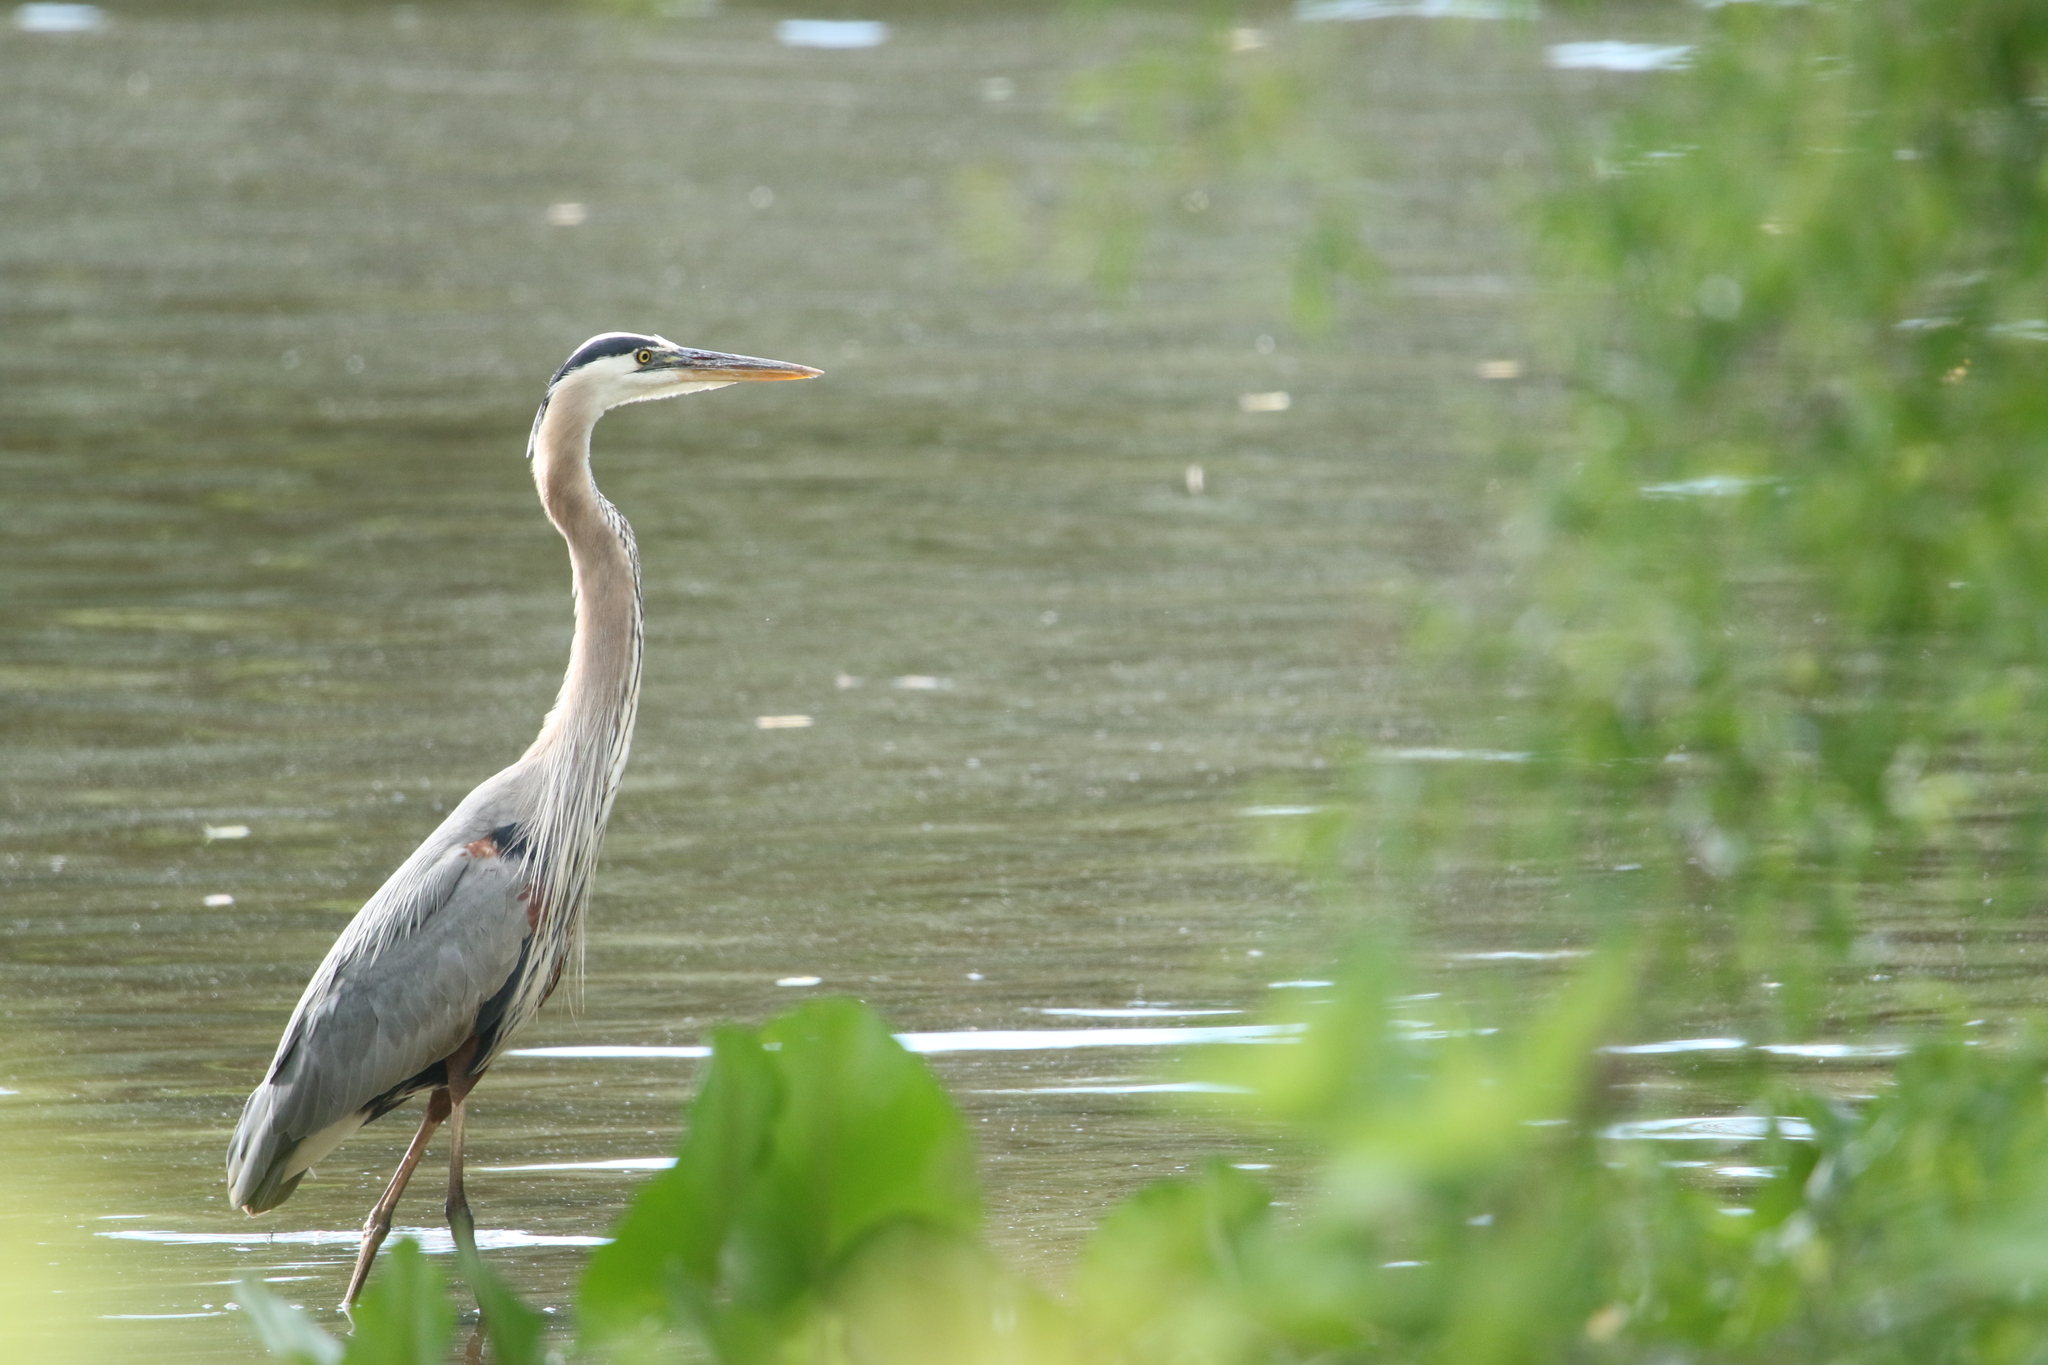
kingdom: Animalia
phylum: Chordata
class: Aves
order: Pelecaniformes
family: Ardeidae
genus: Ardea
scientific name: Ardea herodias
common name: Great blue heron
